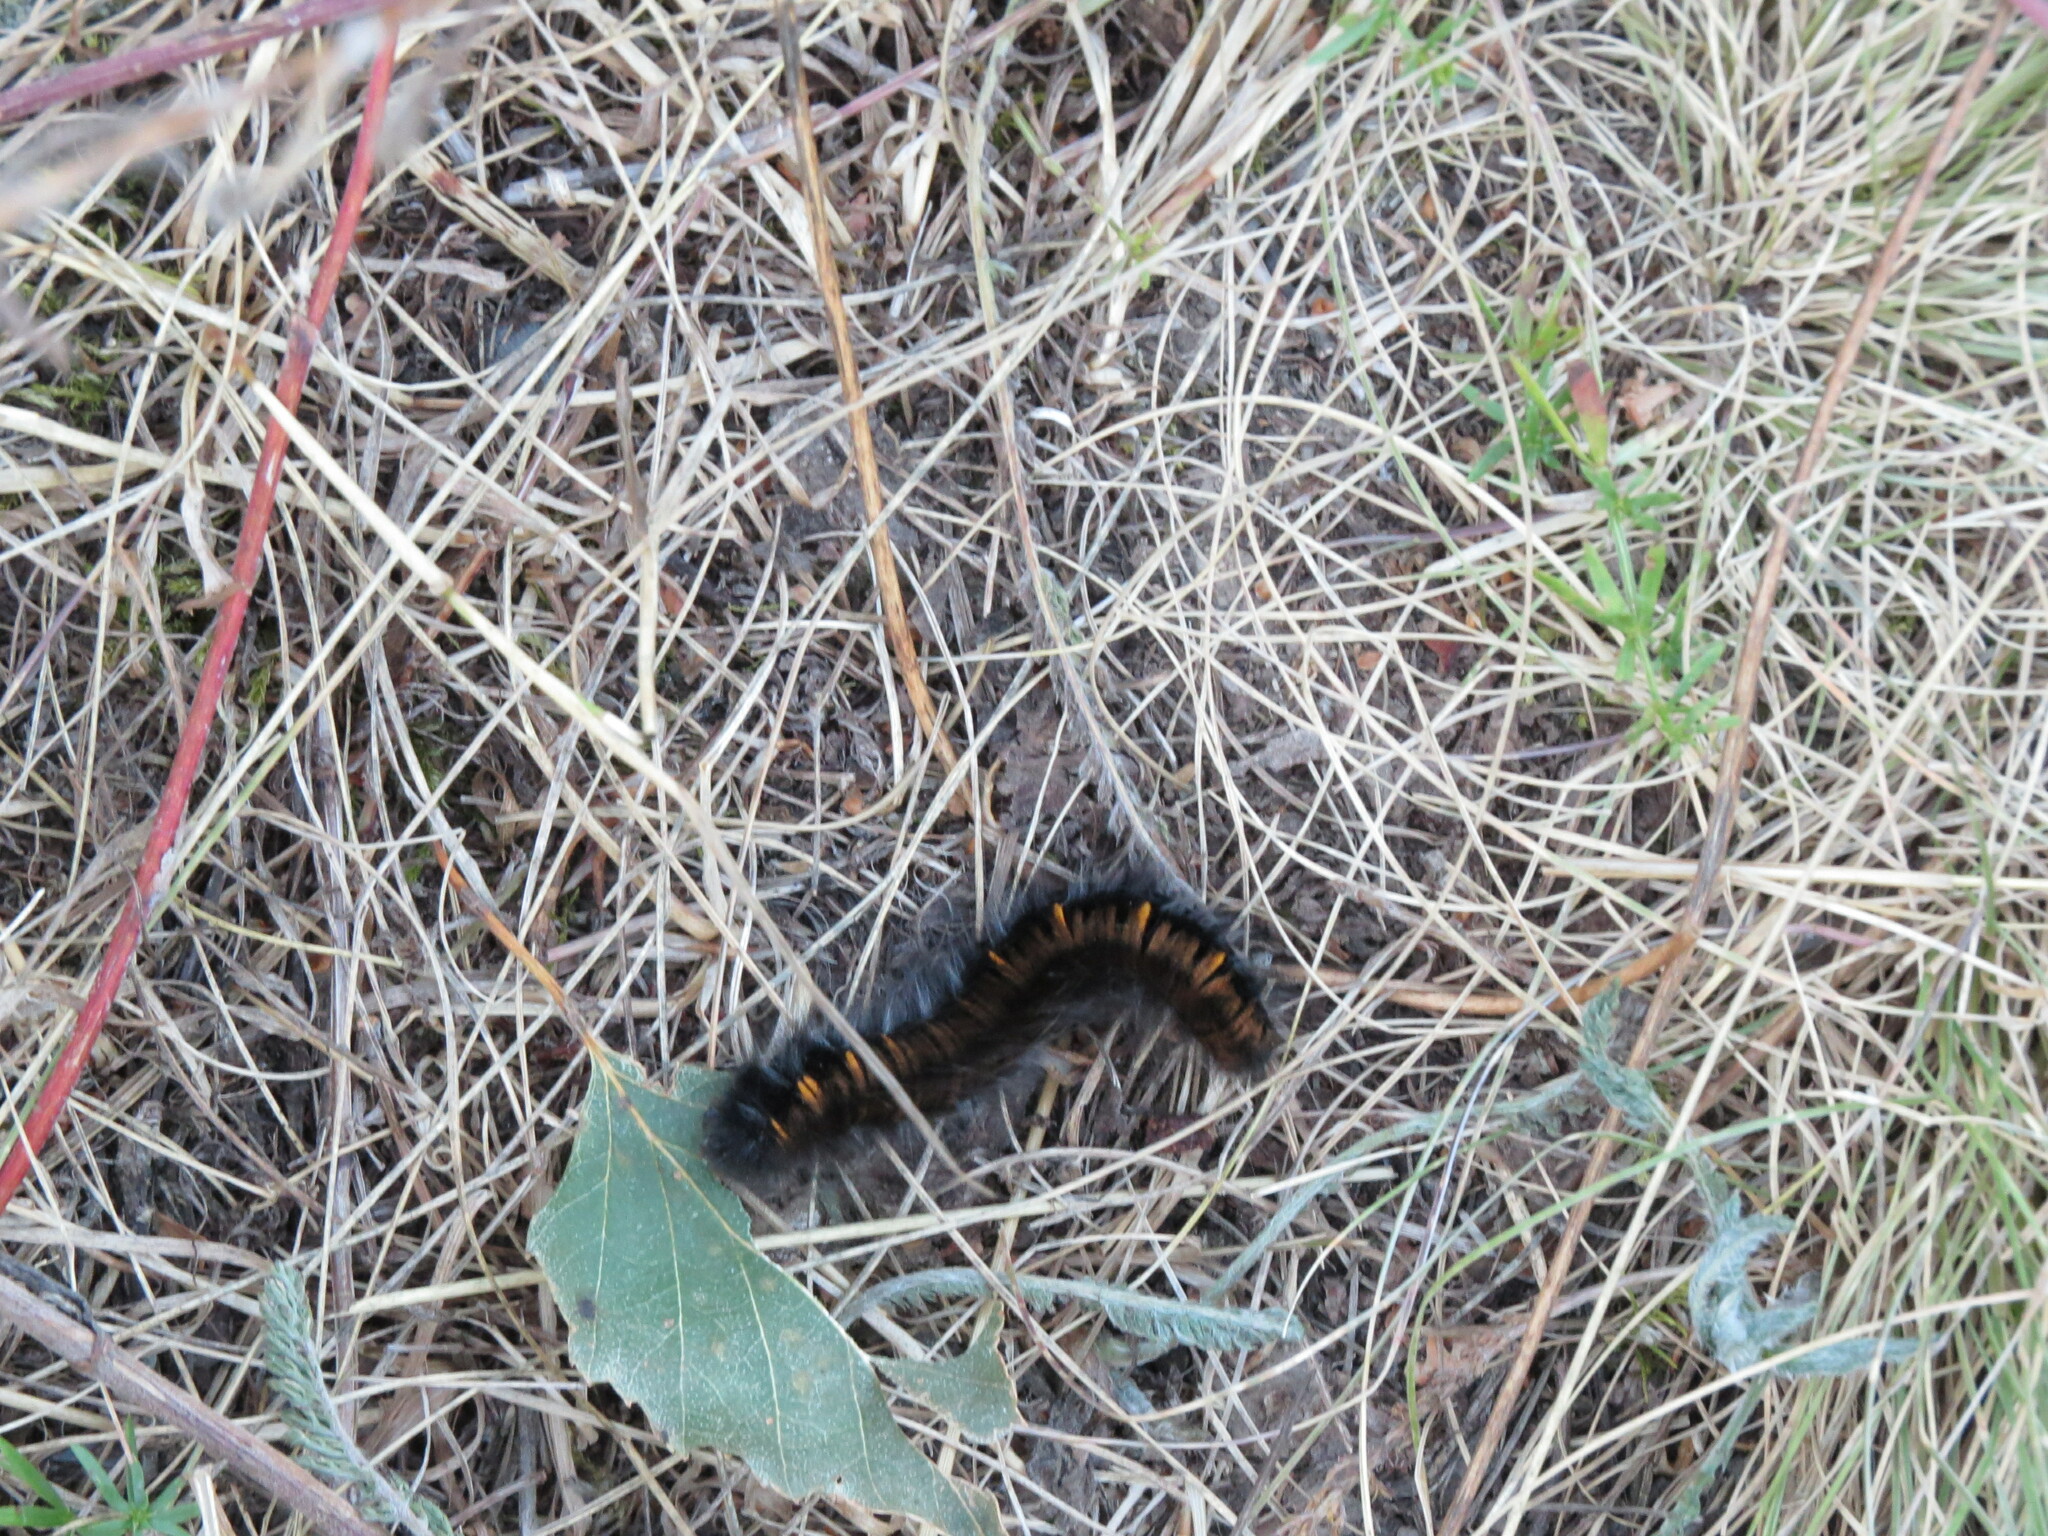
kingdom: Animalia
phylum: Arthropoda
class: Insecta
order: Lepidoptera
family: Lasiocampidae
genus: Macrothylacia
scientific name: Macrothylacia rubi
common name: Fox moth
